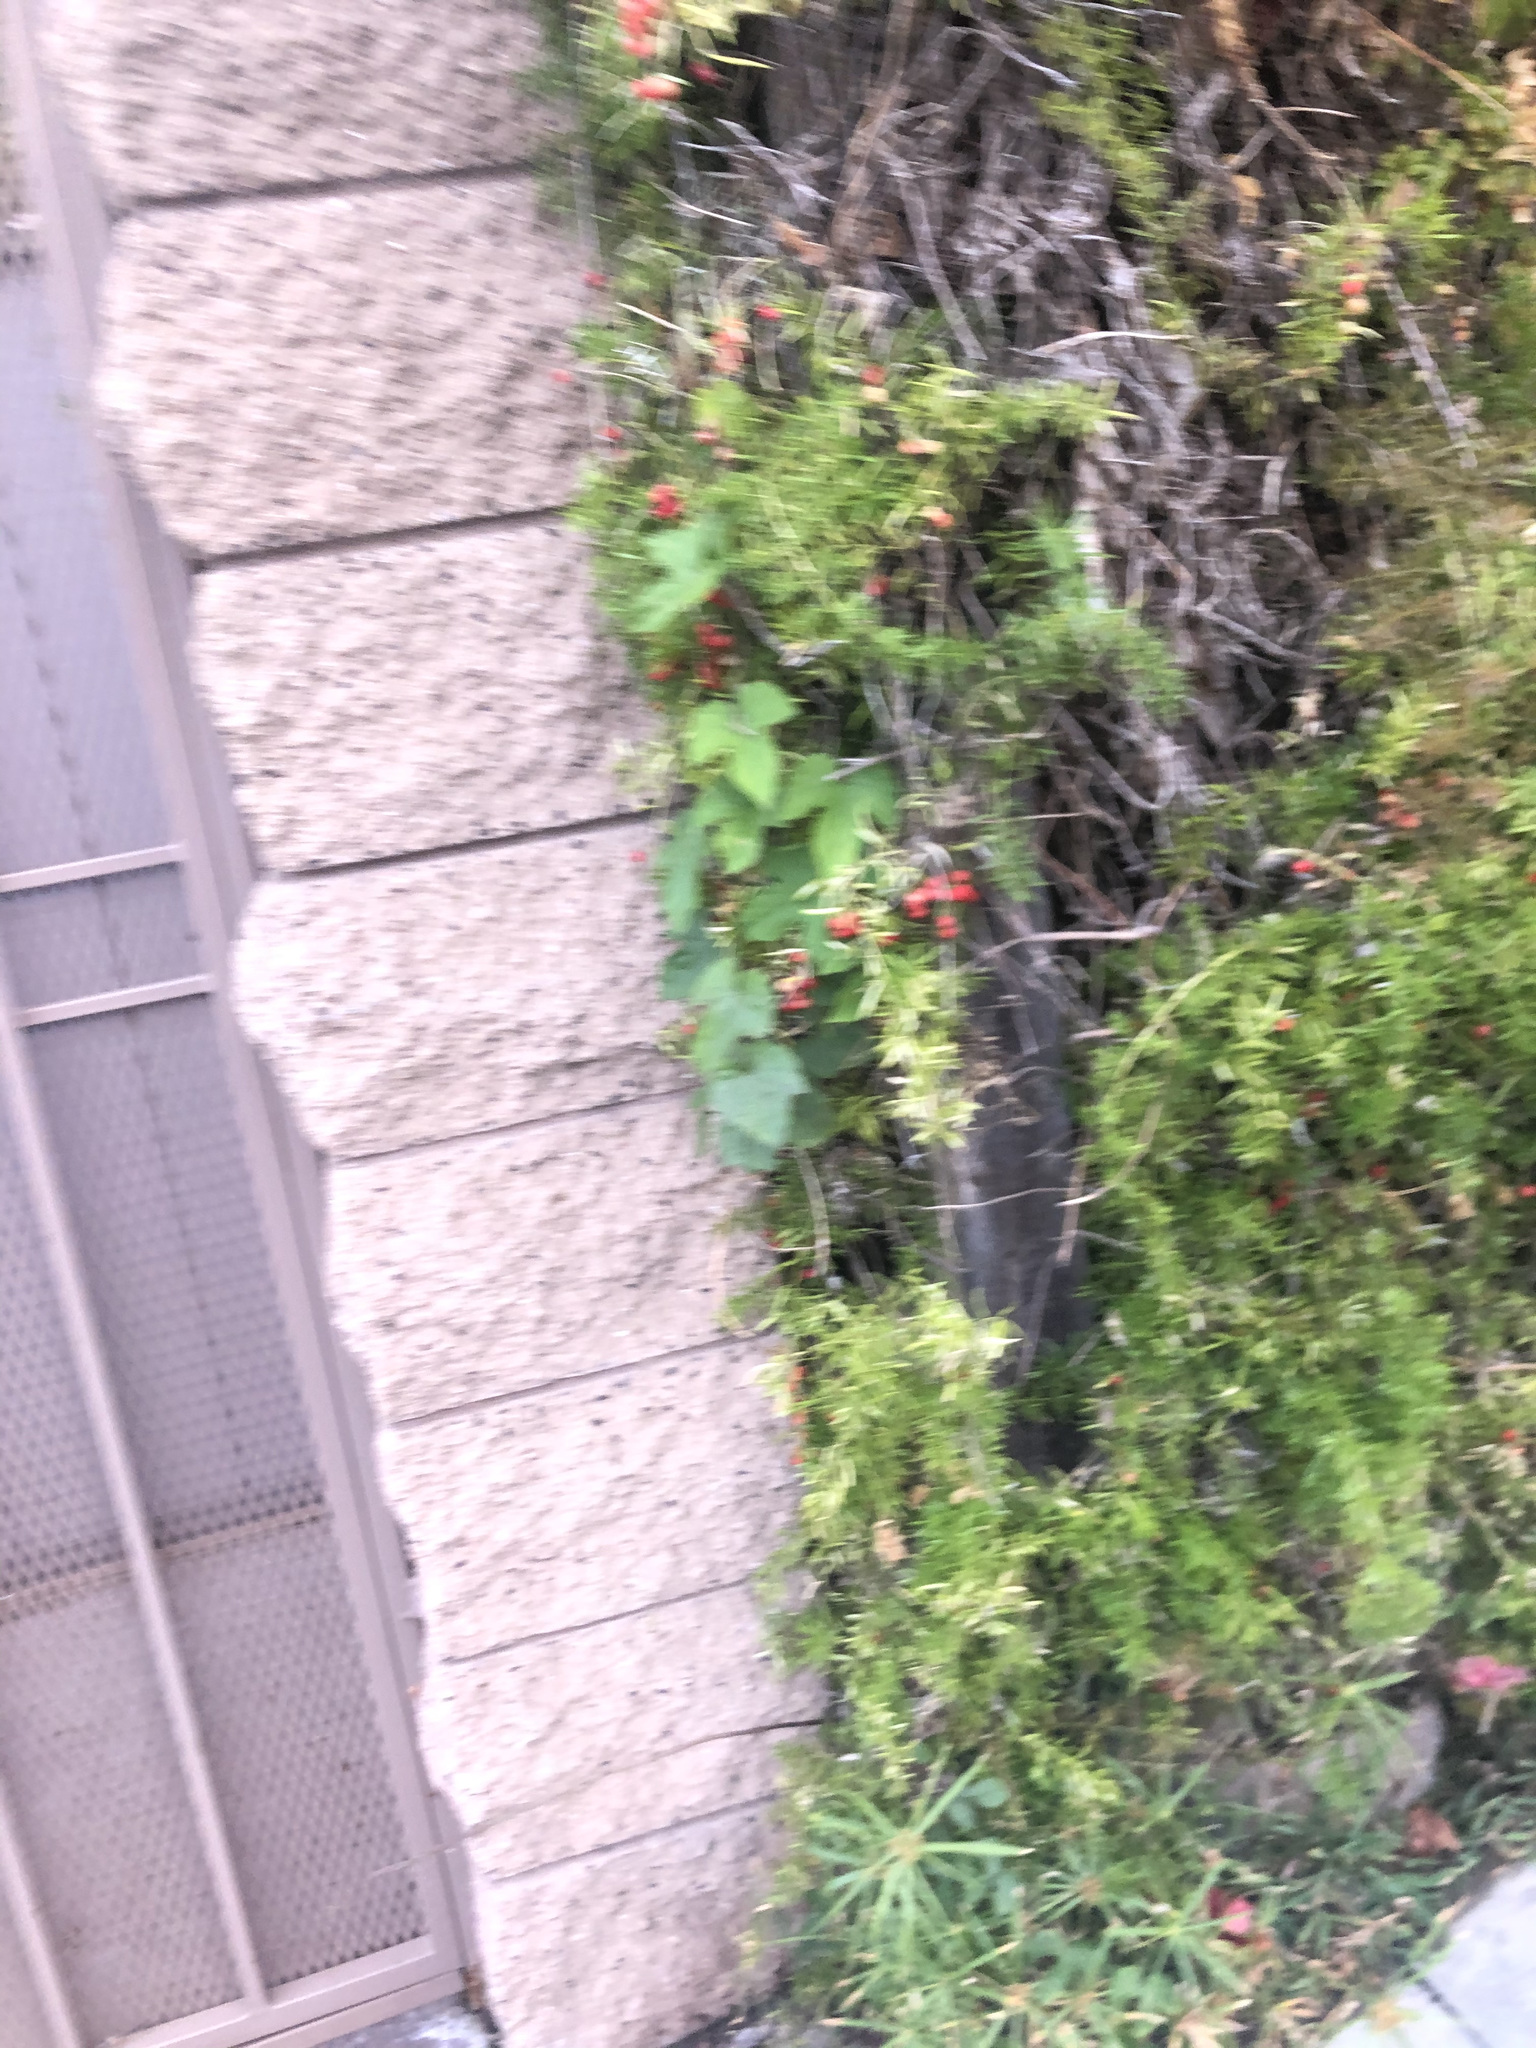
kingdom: Plantae
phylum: Tracheophyta
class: Liliopsida
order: Asparagales
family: Asparagaceae
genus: Asparagus
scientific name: Asparagus aethiopicus
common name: Sprenger's asparagus fern
